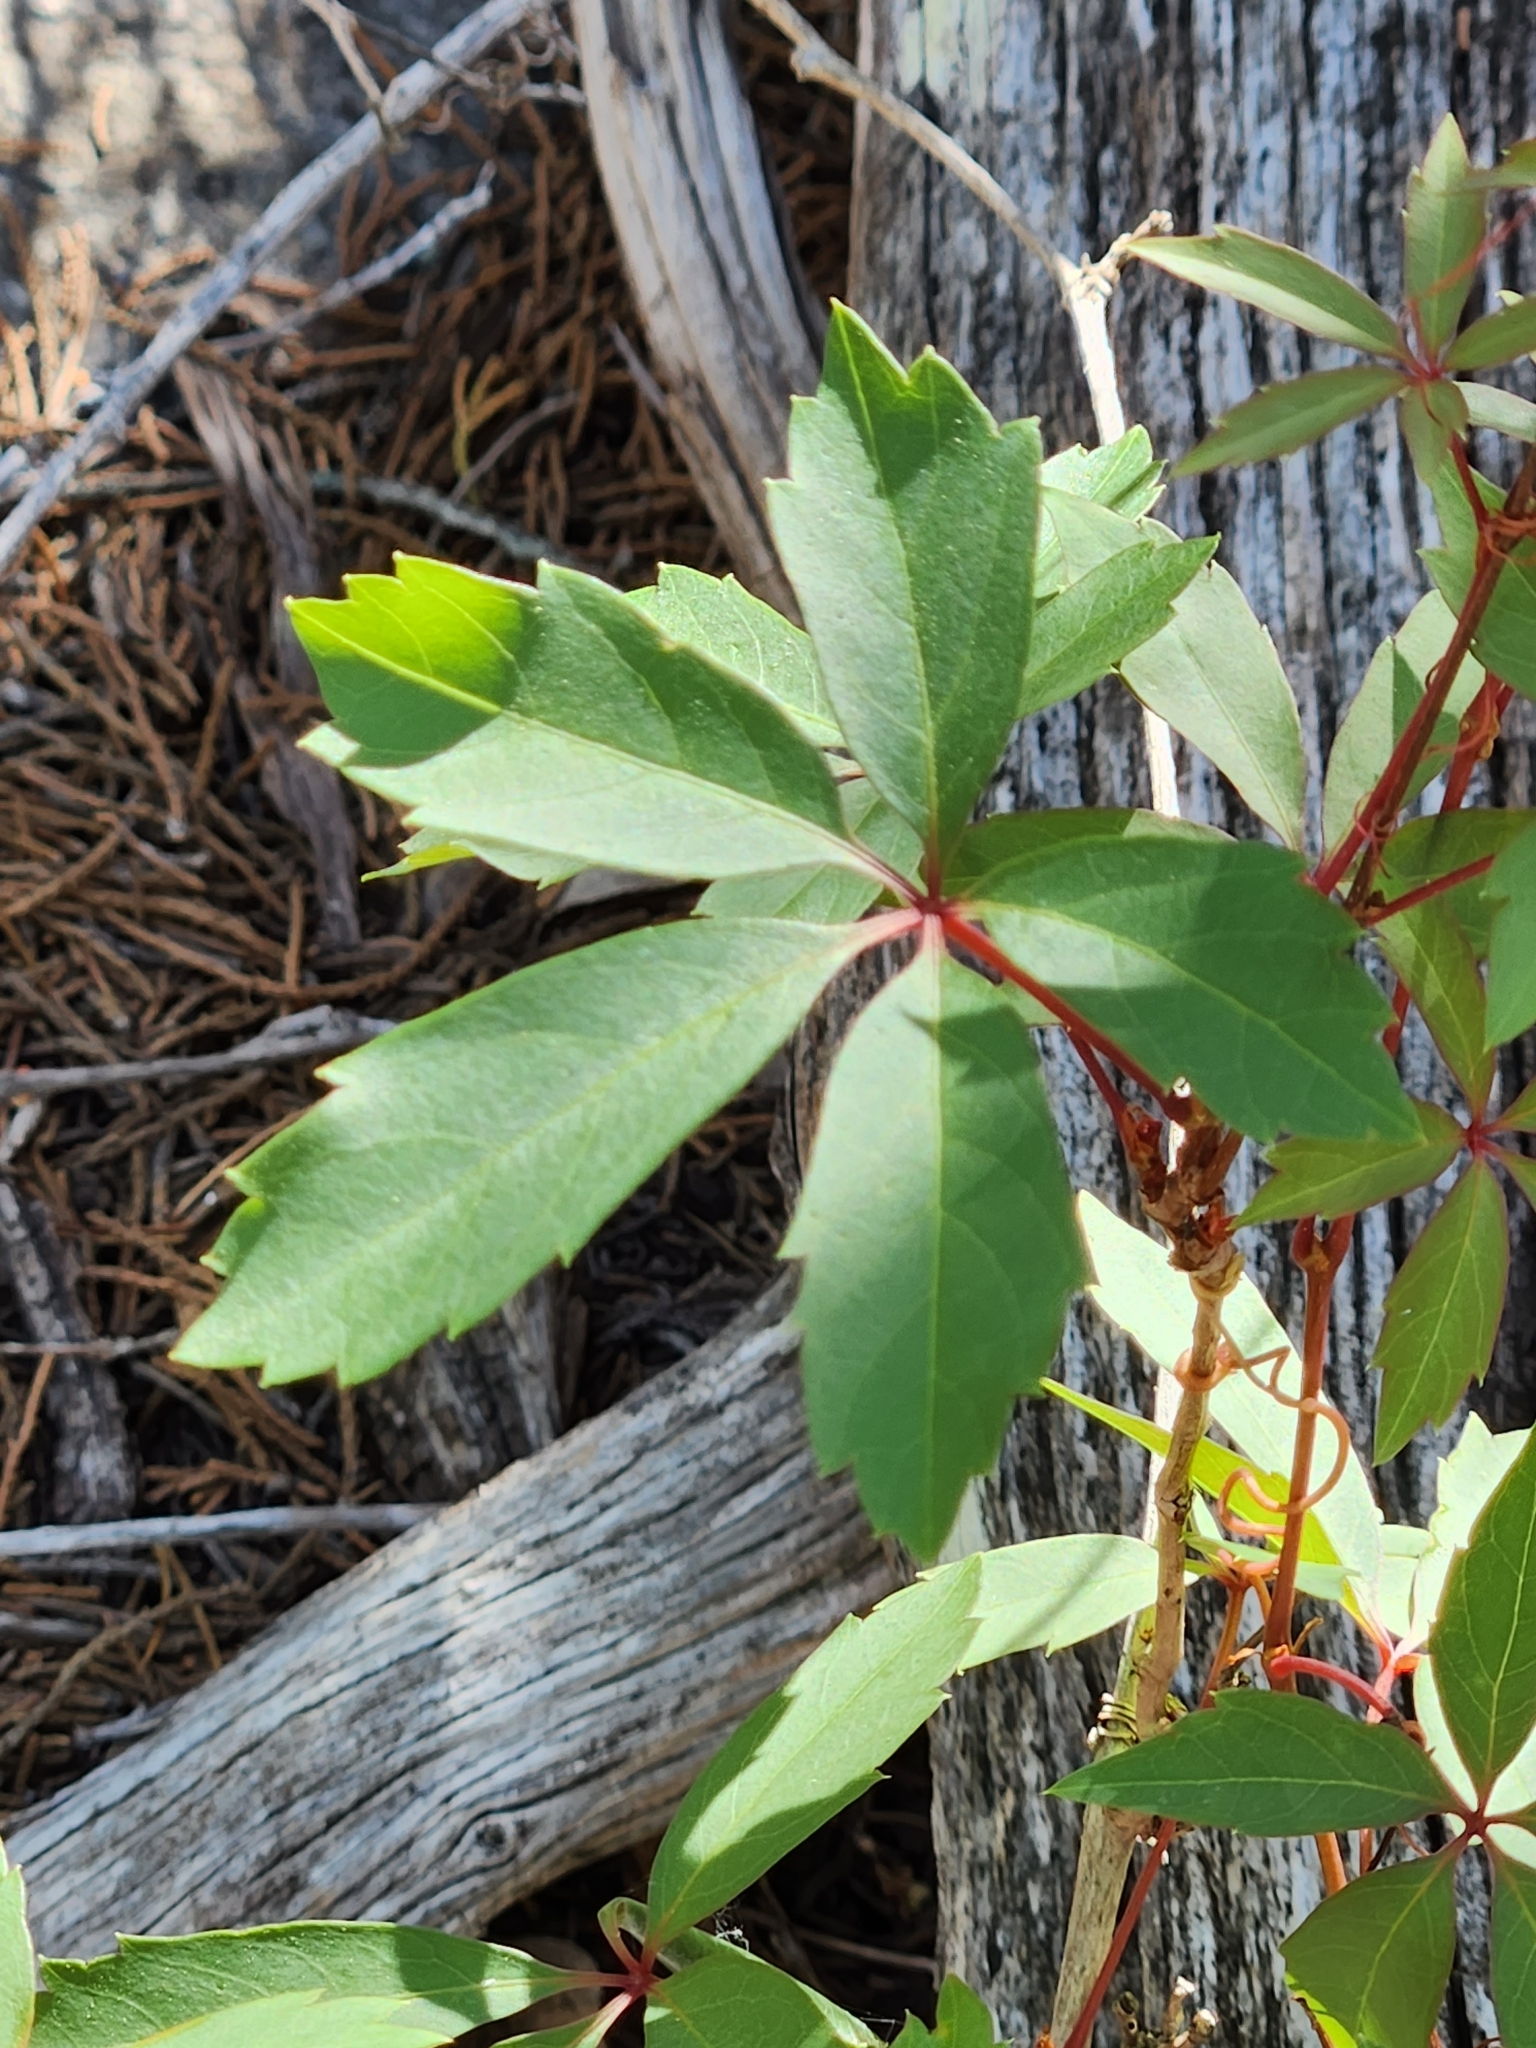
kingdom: Plantae
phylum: Tracheophyta
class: Magnoliopsida
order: Vitales
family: Vitaceae
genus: Parthenocissus
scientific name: Parthenocissus quinquefolia
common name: Virginia-creeper
